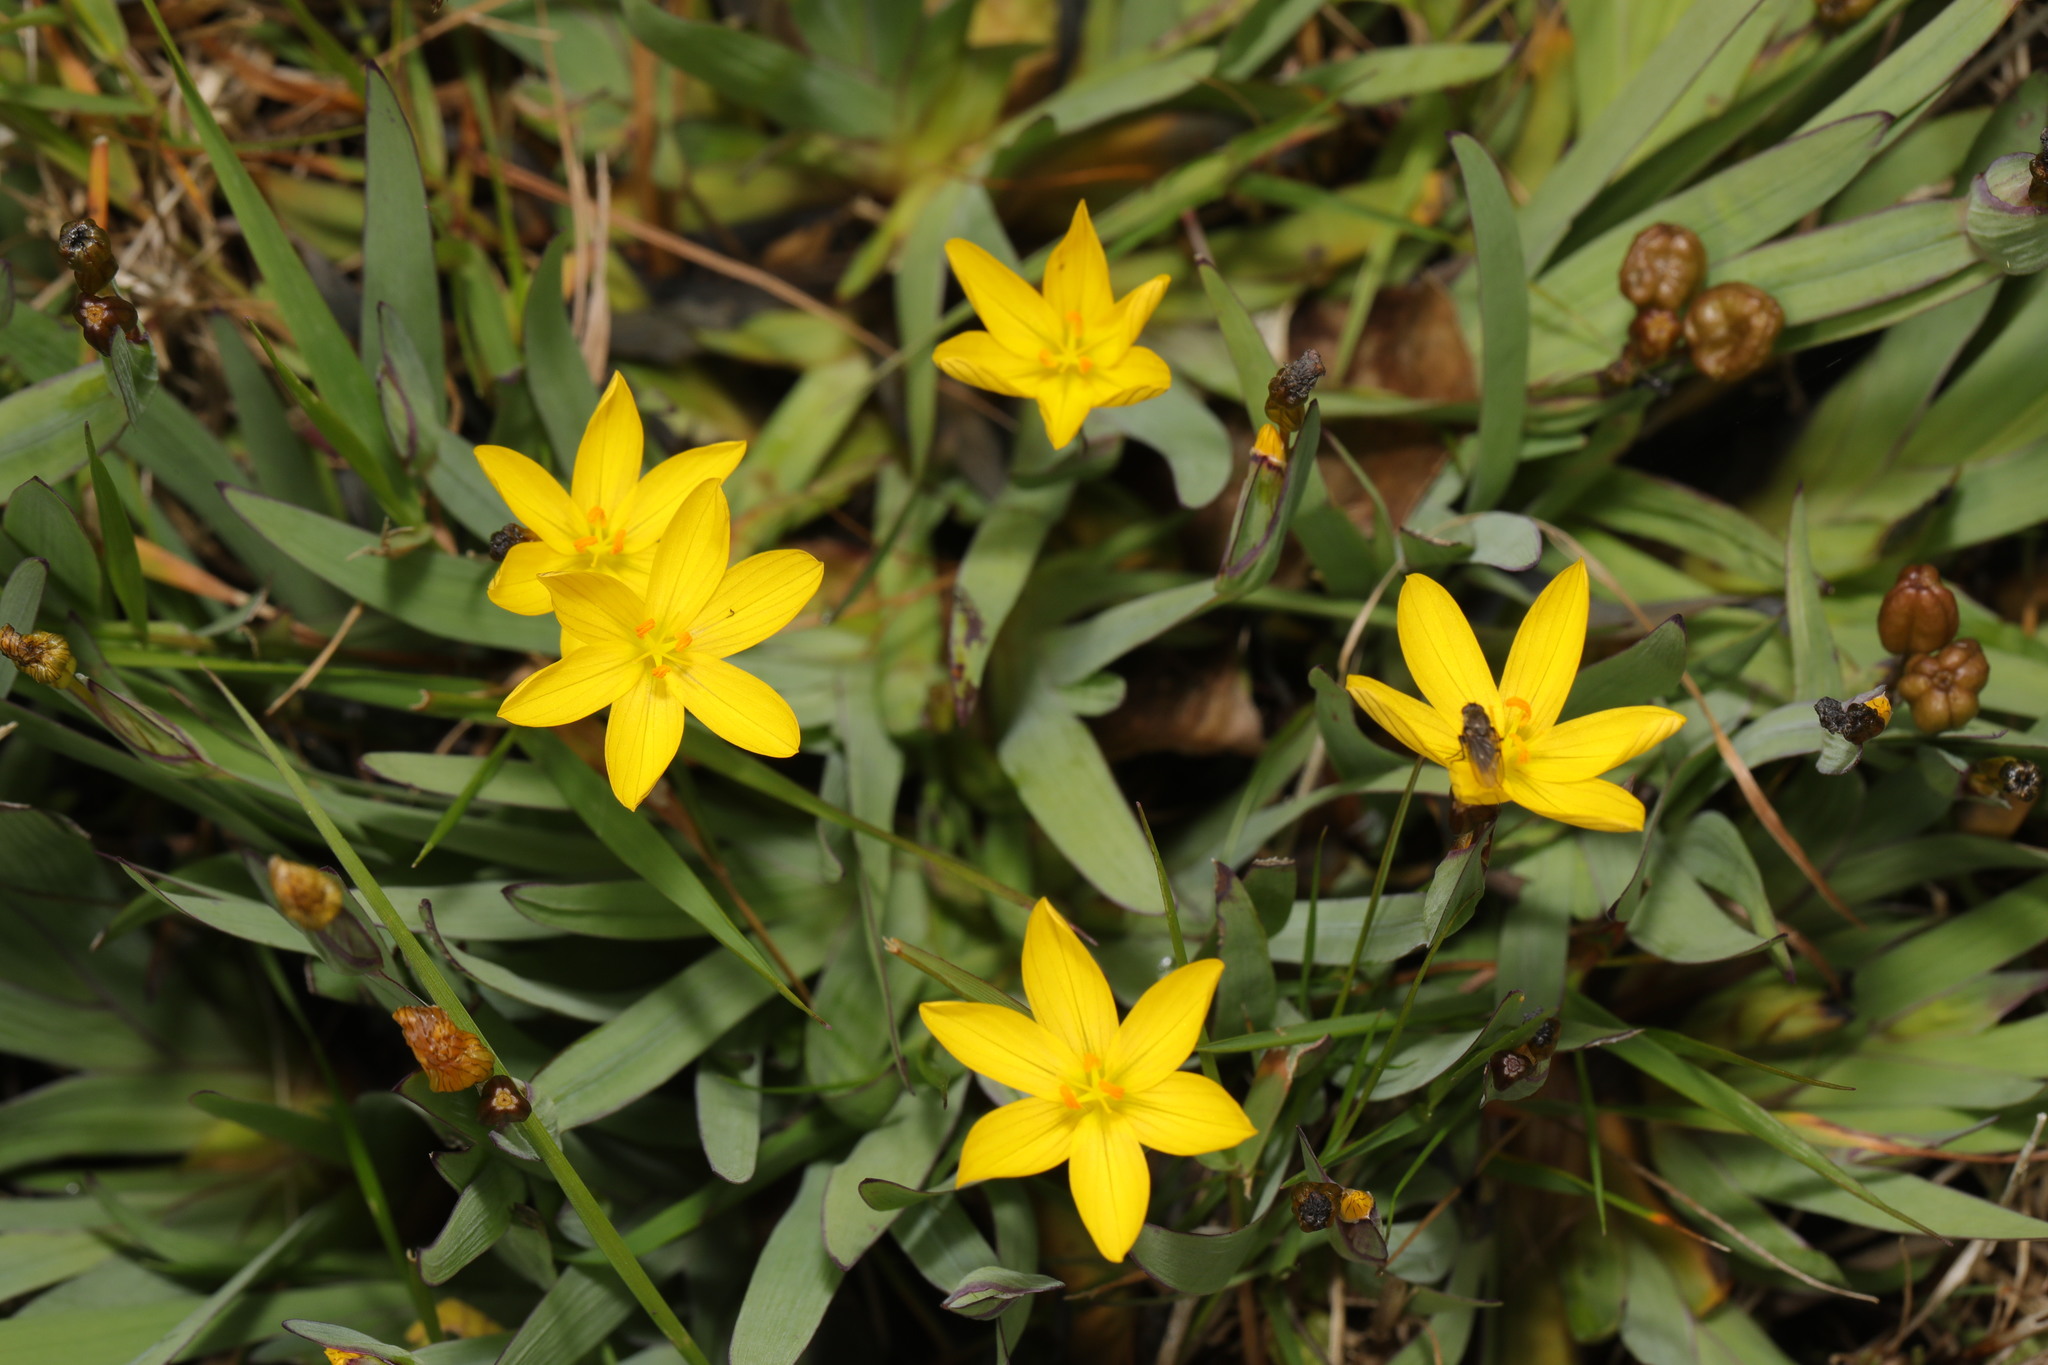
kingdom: Plantae
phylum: Tracheophyta
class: Liliopsida
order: Asparagales
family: Iridaceae
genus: Sisyrinchium
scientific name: Sisyrinchium californicum
